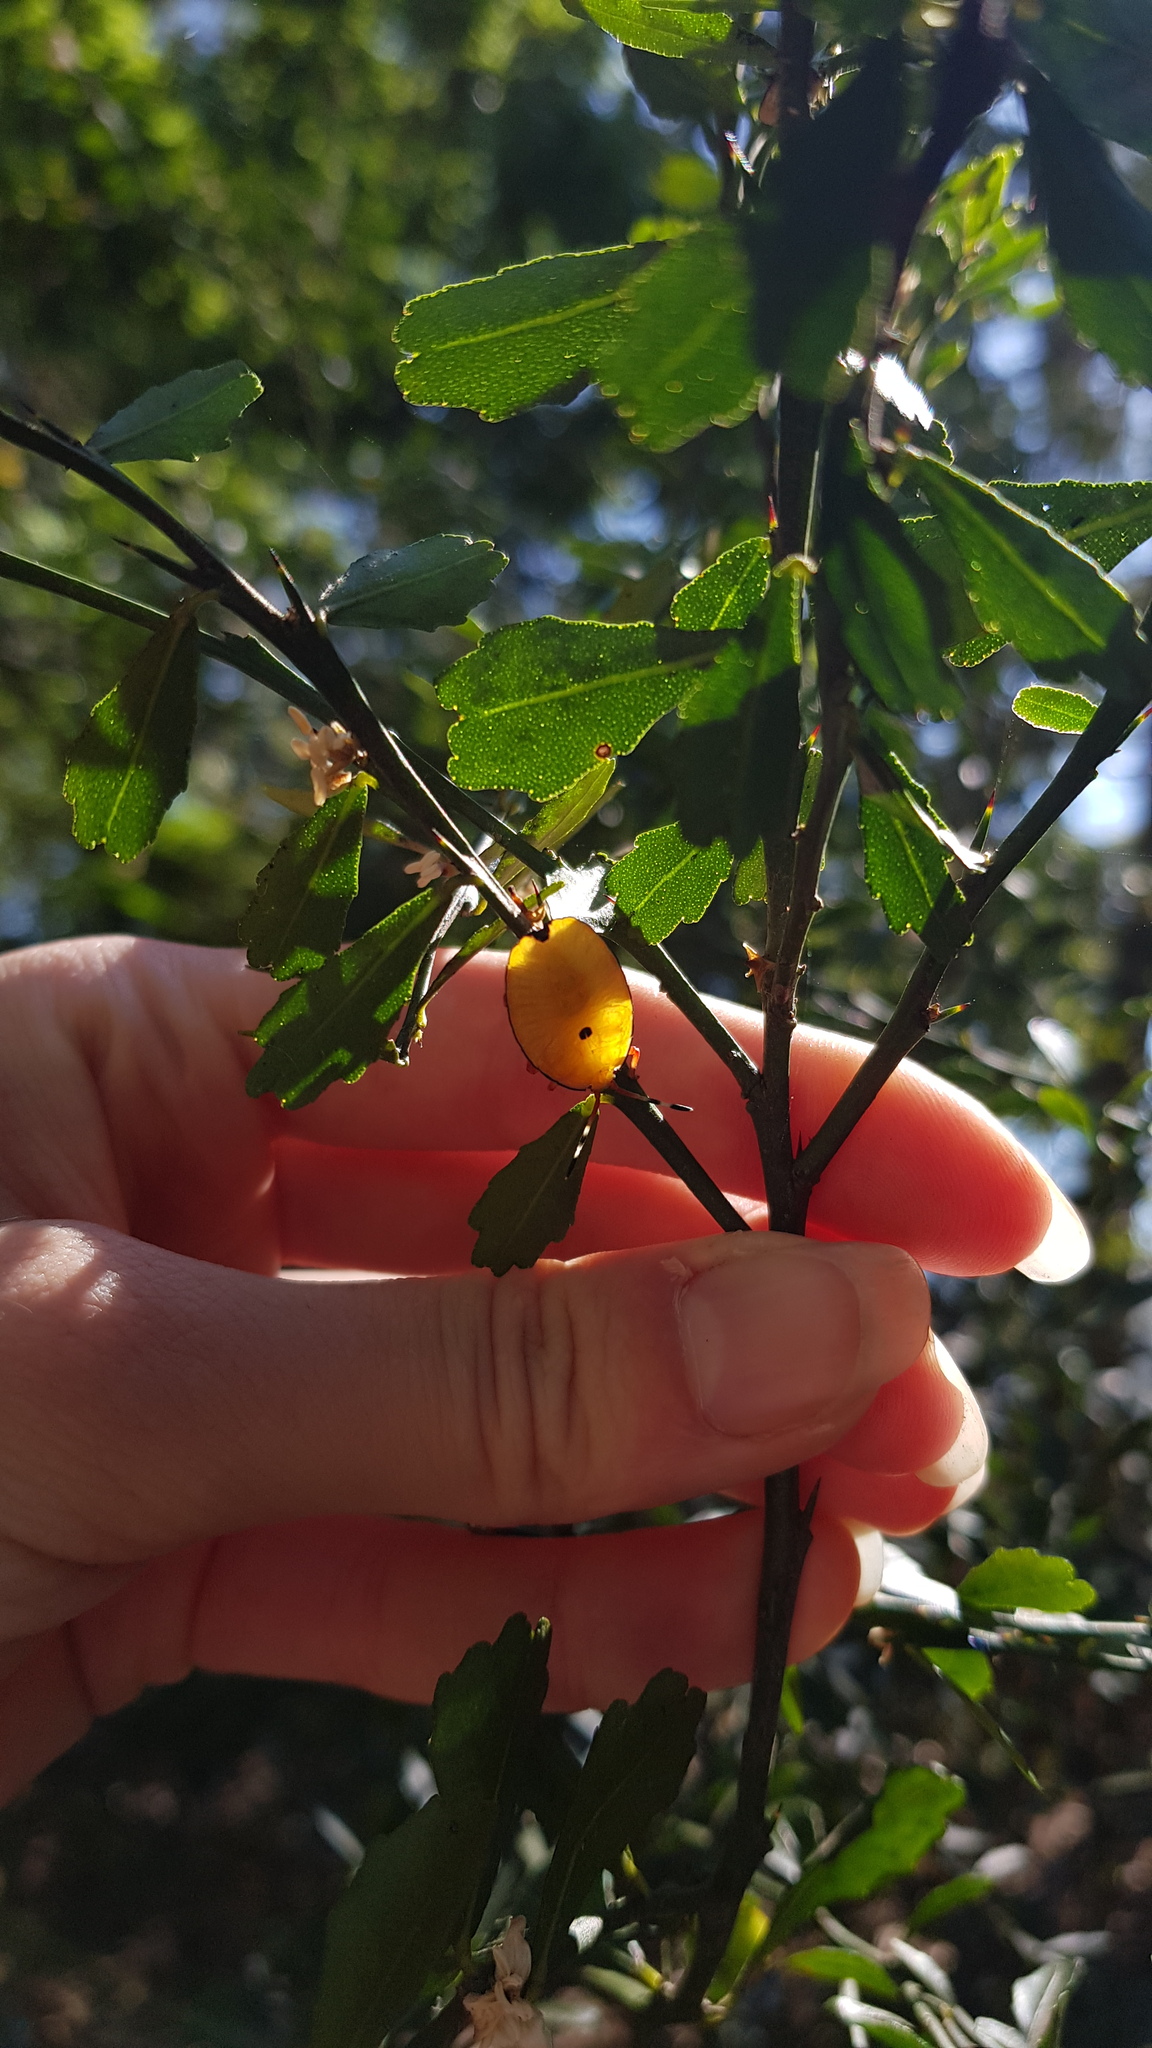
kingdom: Animalia
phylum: Arthropoda
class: Insecta
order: Hemiptera
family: Tessaratomidae
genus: Musgraveia
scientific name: Musgraveia sulciventris
